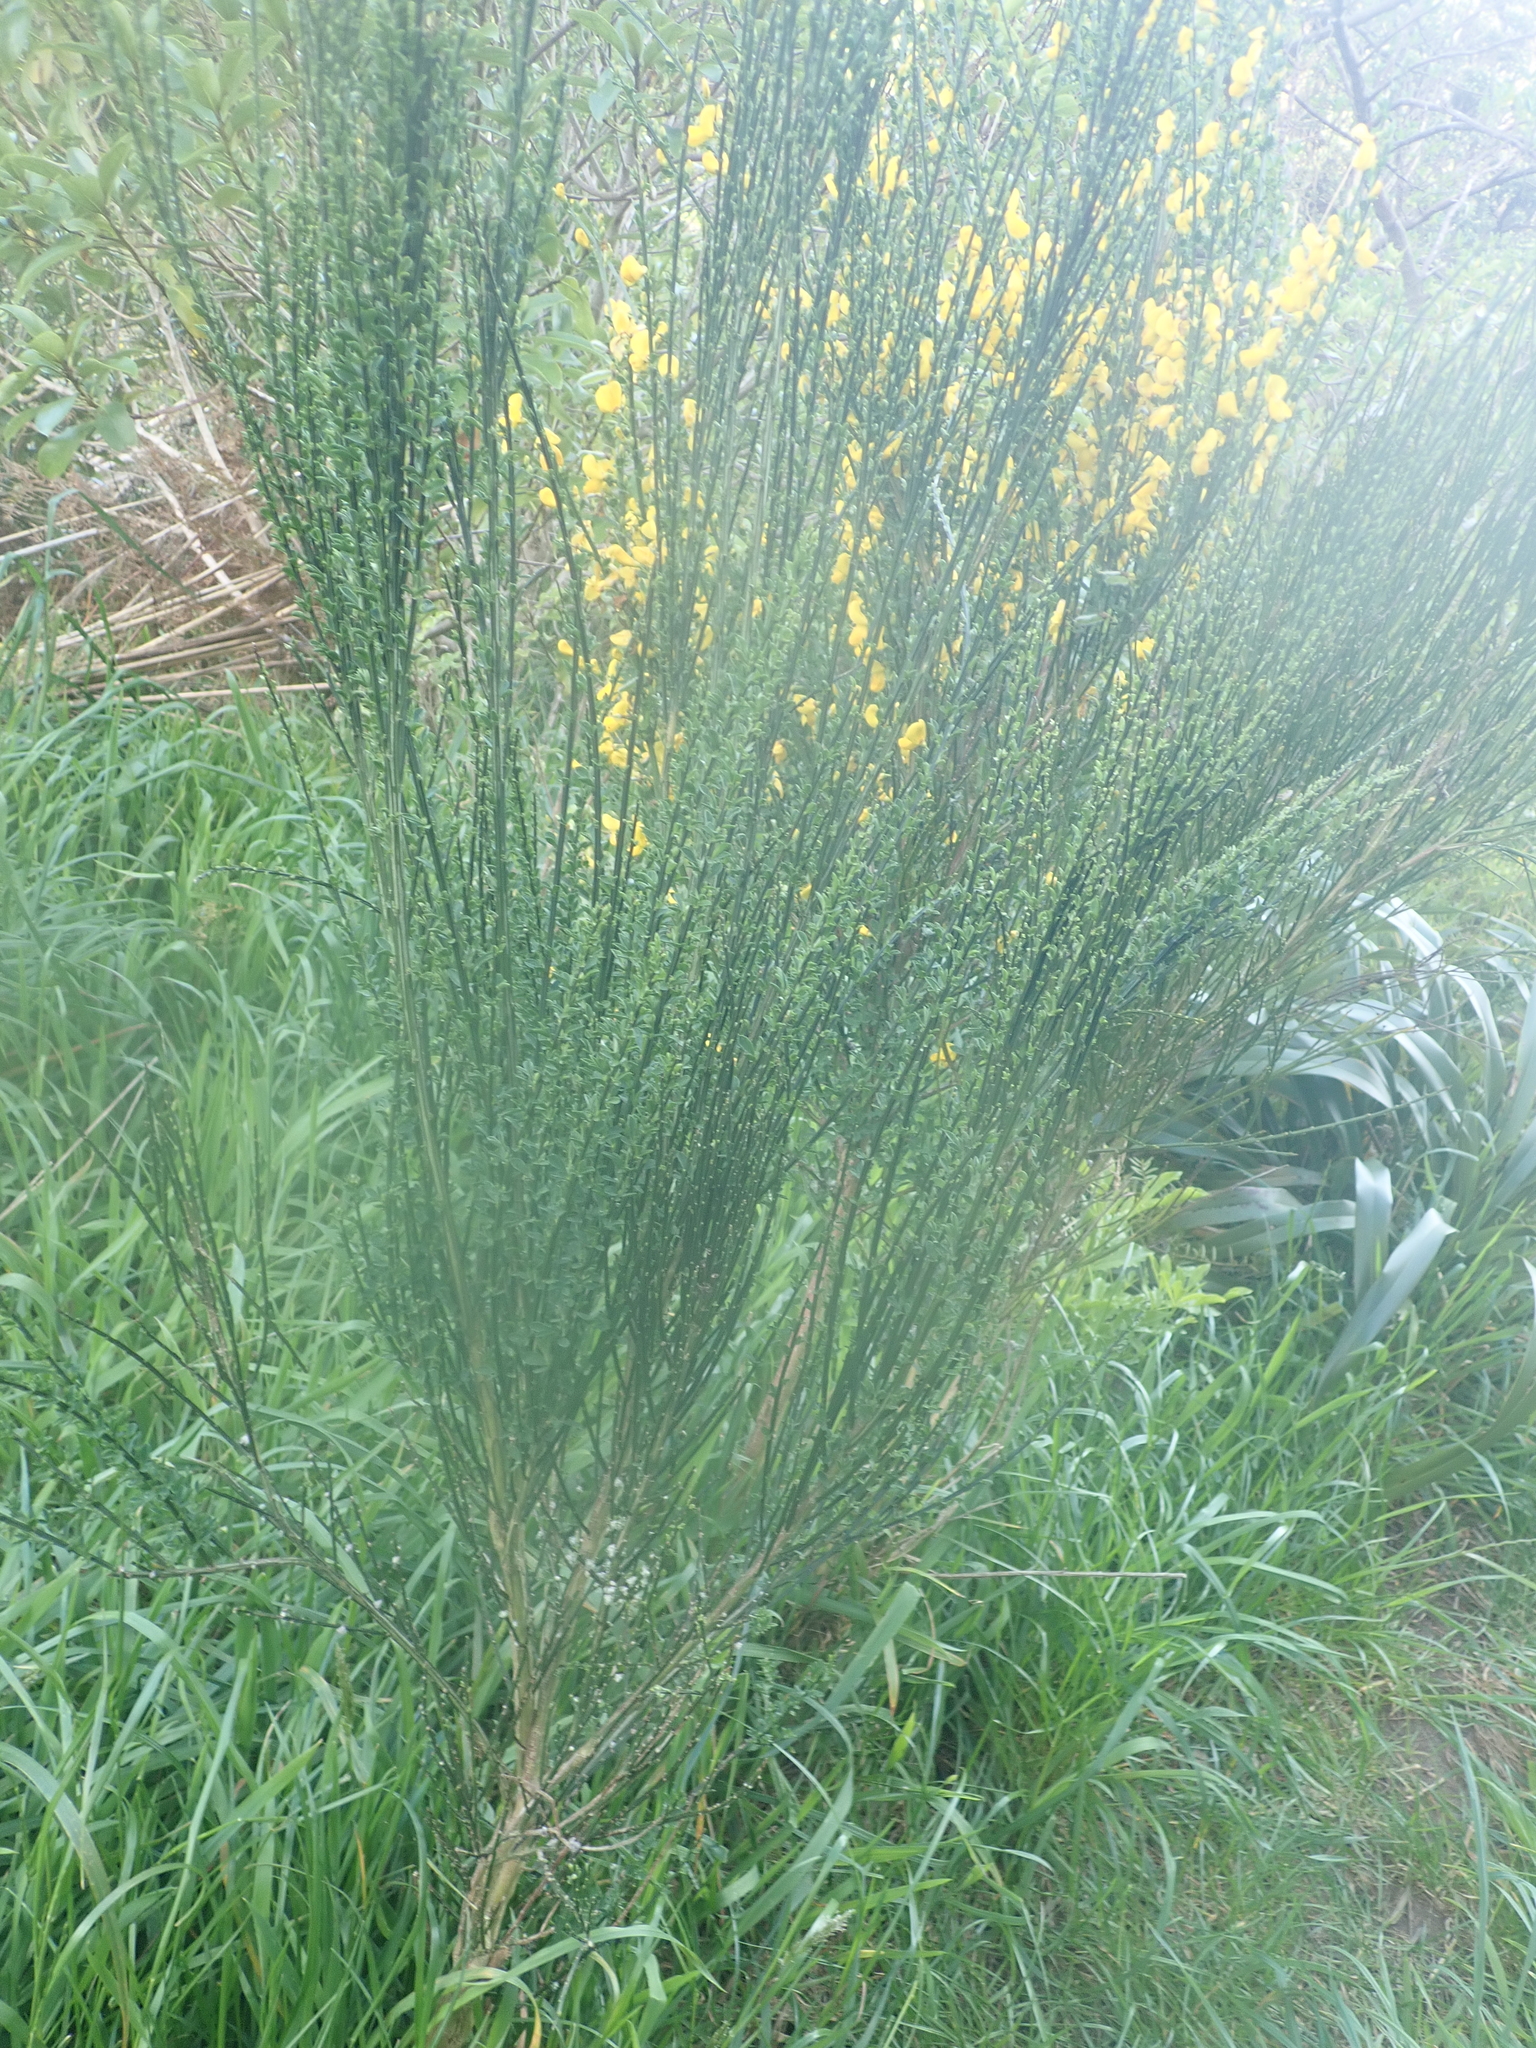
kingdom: Animalia
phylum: Arthropoda
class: Arachnida
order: Trombidiformes
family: Eriophyidae
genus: Aceria
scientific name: Aceria genistae
